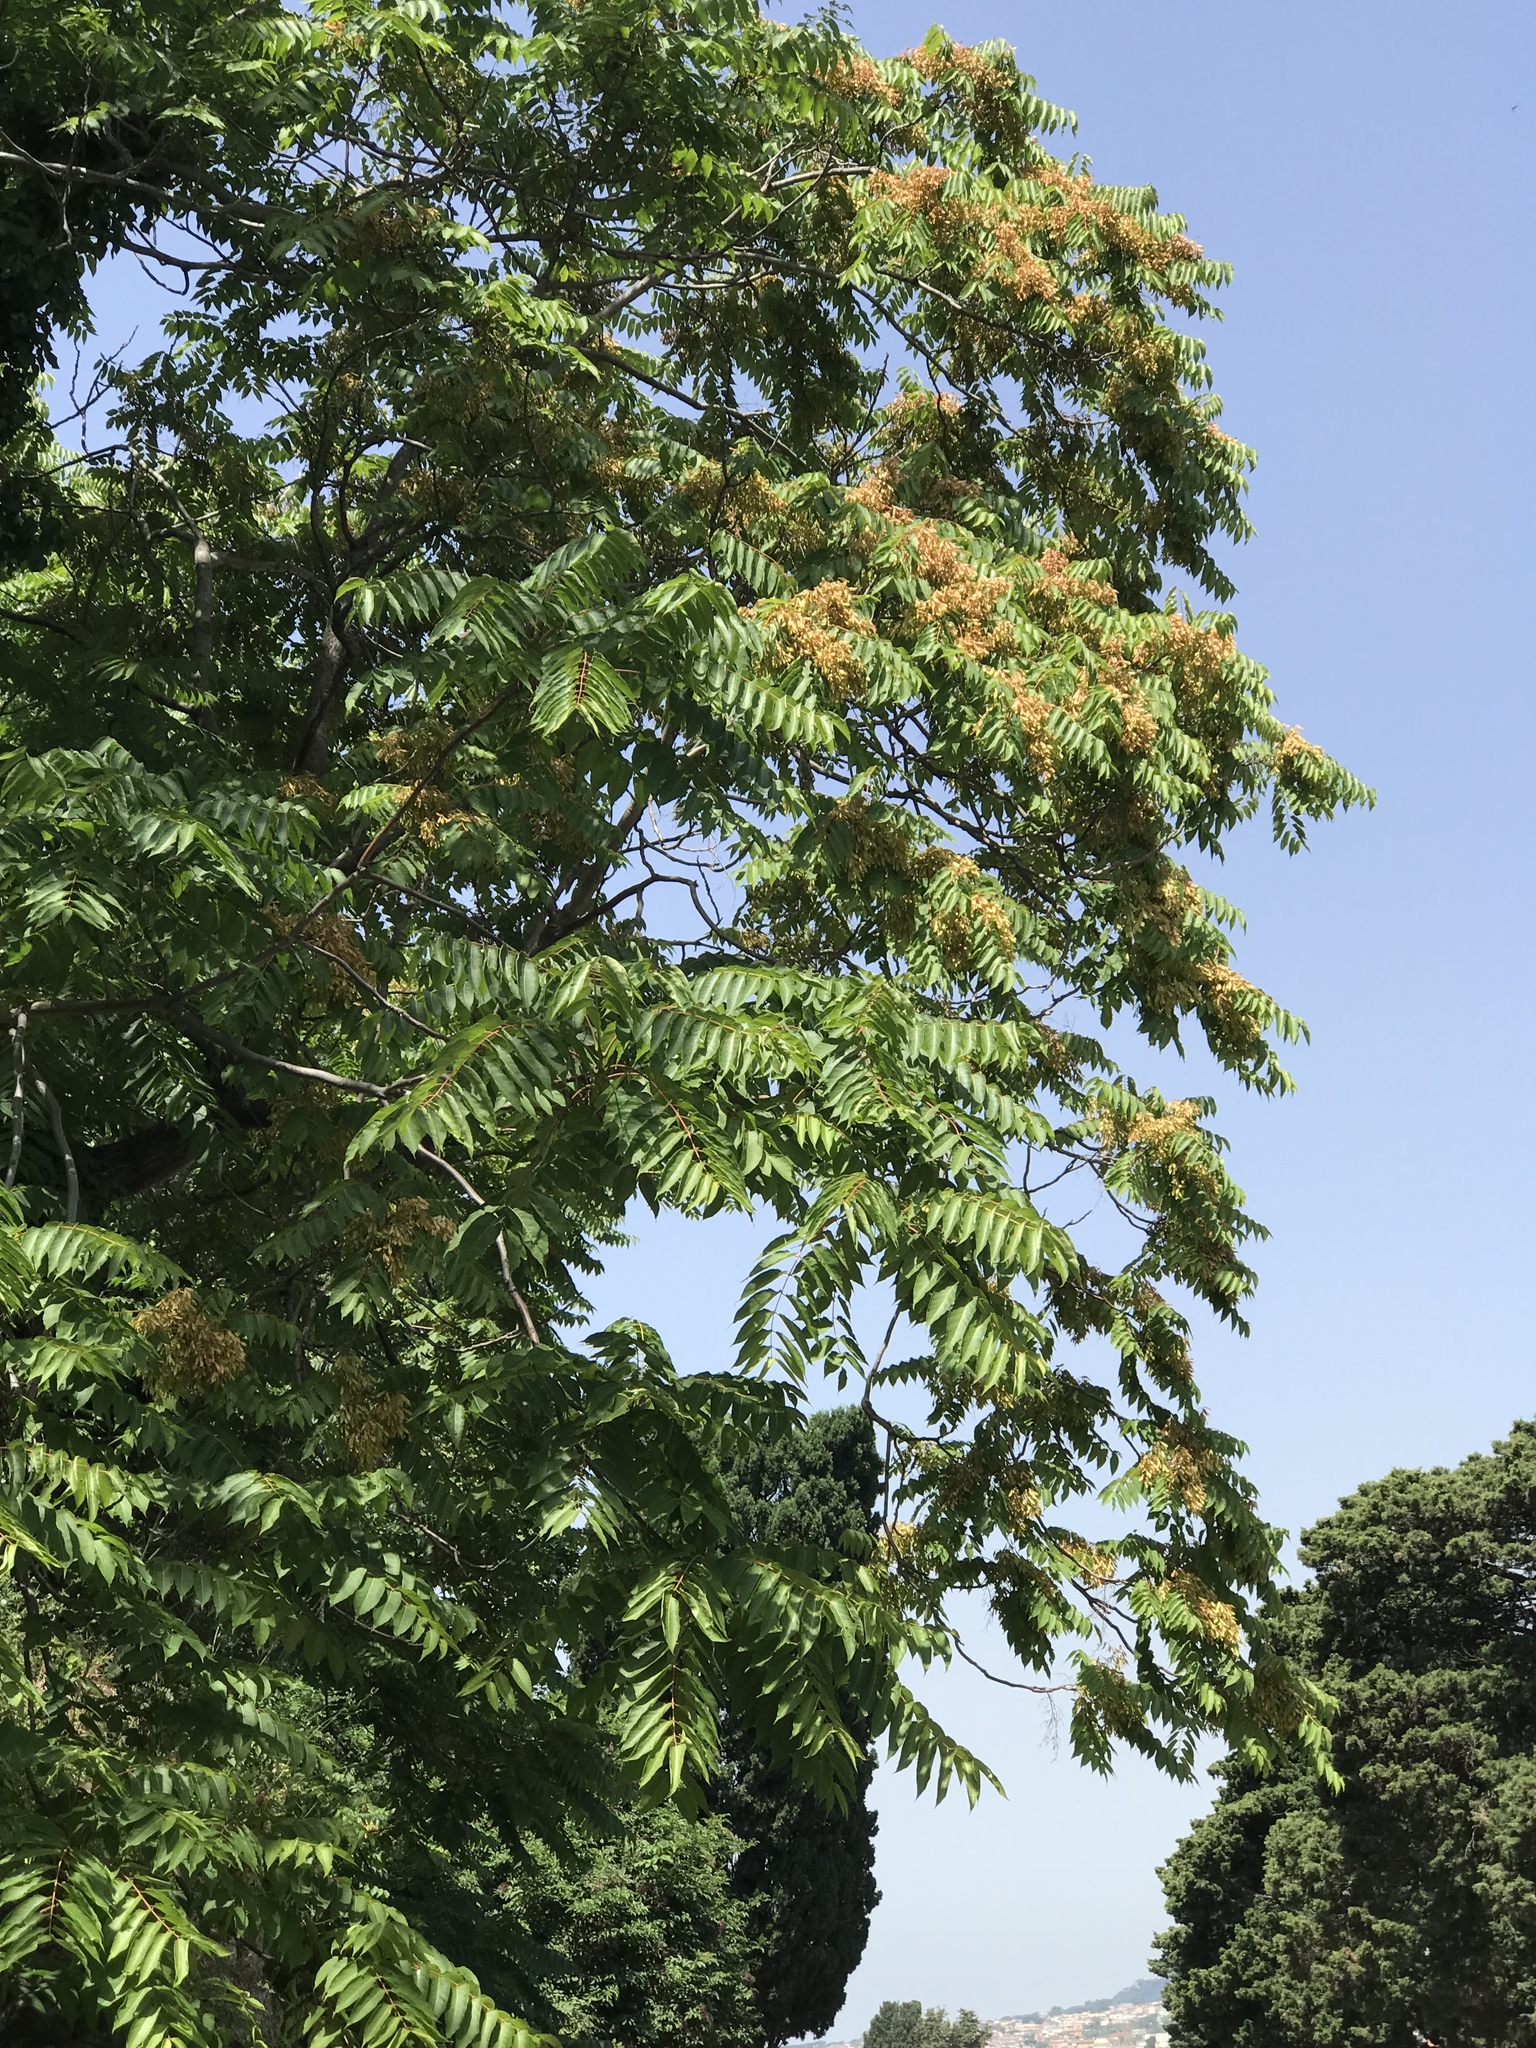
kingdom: Plantae
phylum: Tracheophyta
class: Magnoliopsida
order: Sapindales
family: Simaroubaceae
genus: Ailanthus
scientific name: Ailanthus altissima
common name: Tree-of-heaven
